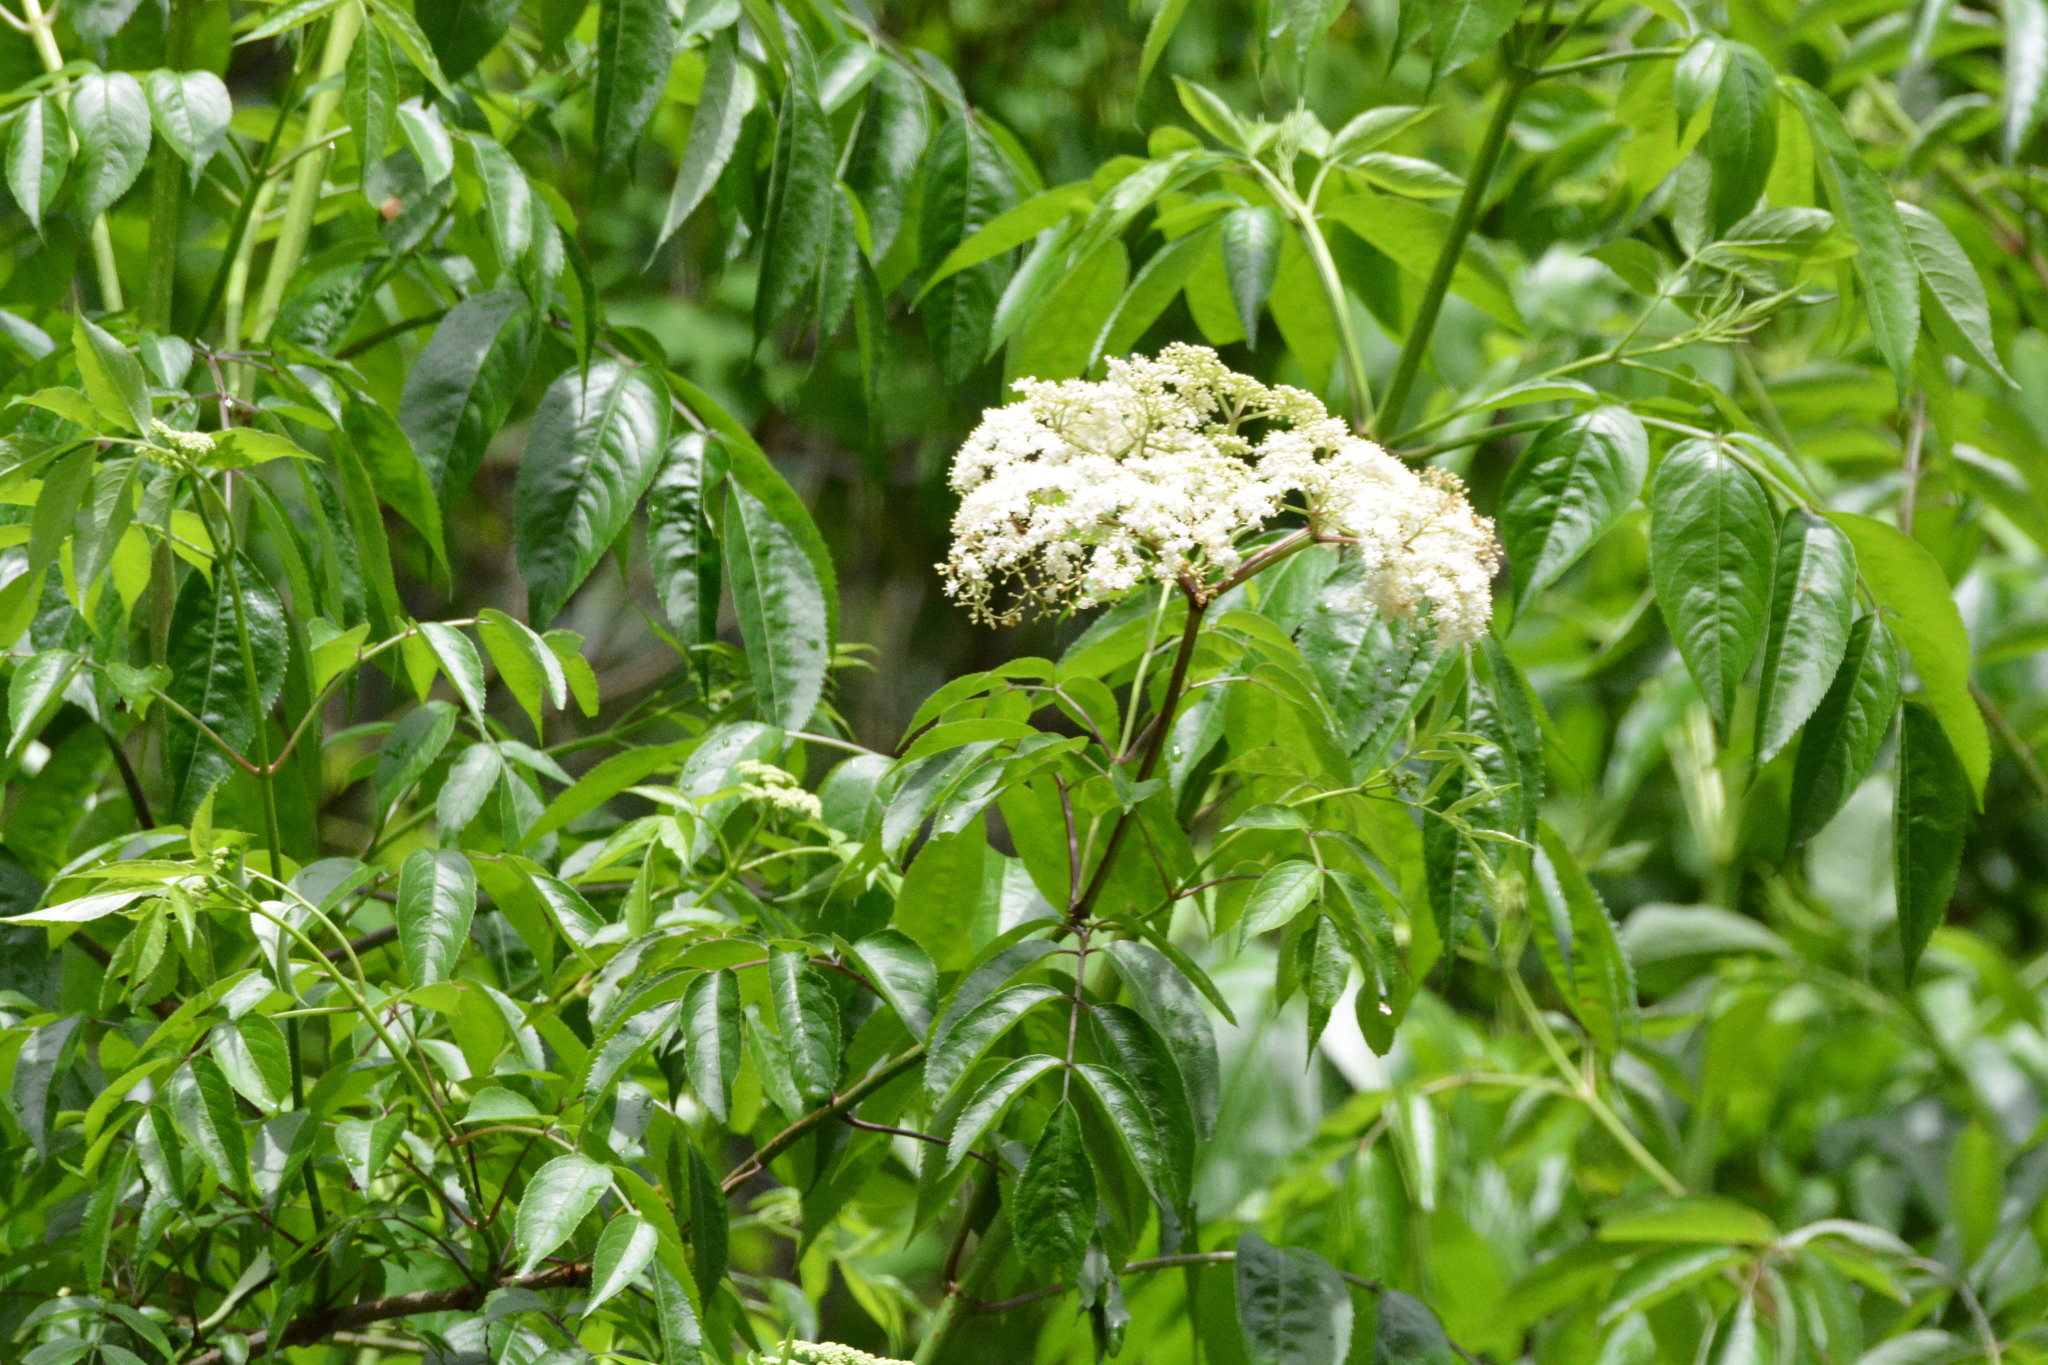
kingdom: Plantae
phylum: Tracheophyta
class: Magnoliopsida
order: Dipsacales
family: Viburnaceae
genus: Sambucus
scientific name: Sambucus canadensis
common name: American elder
